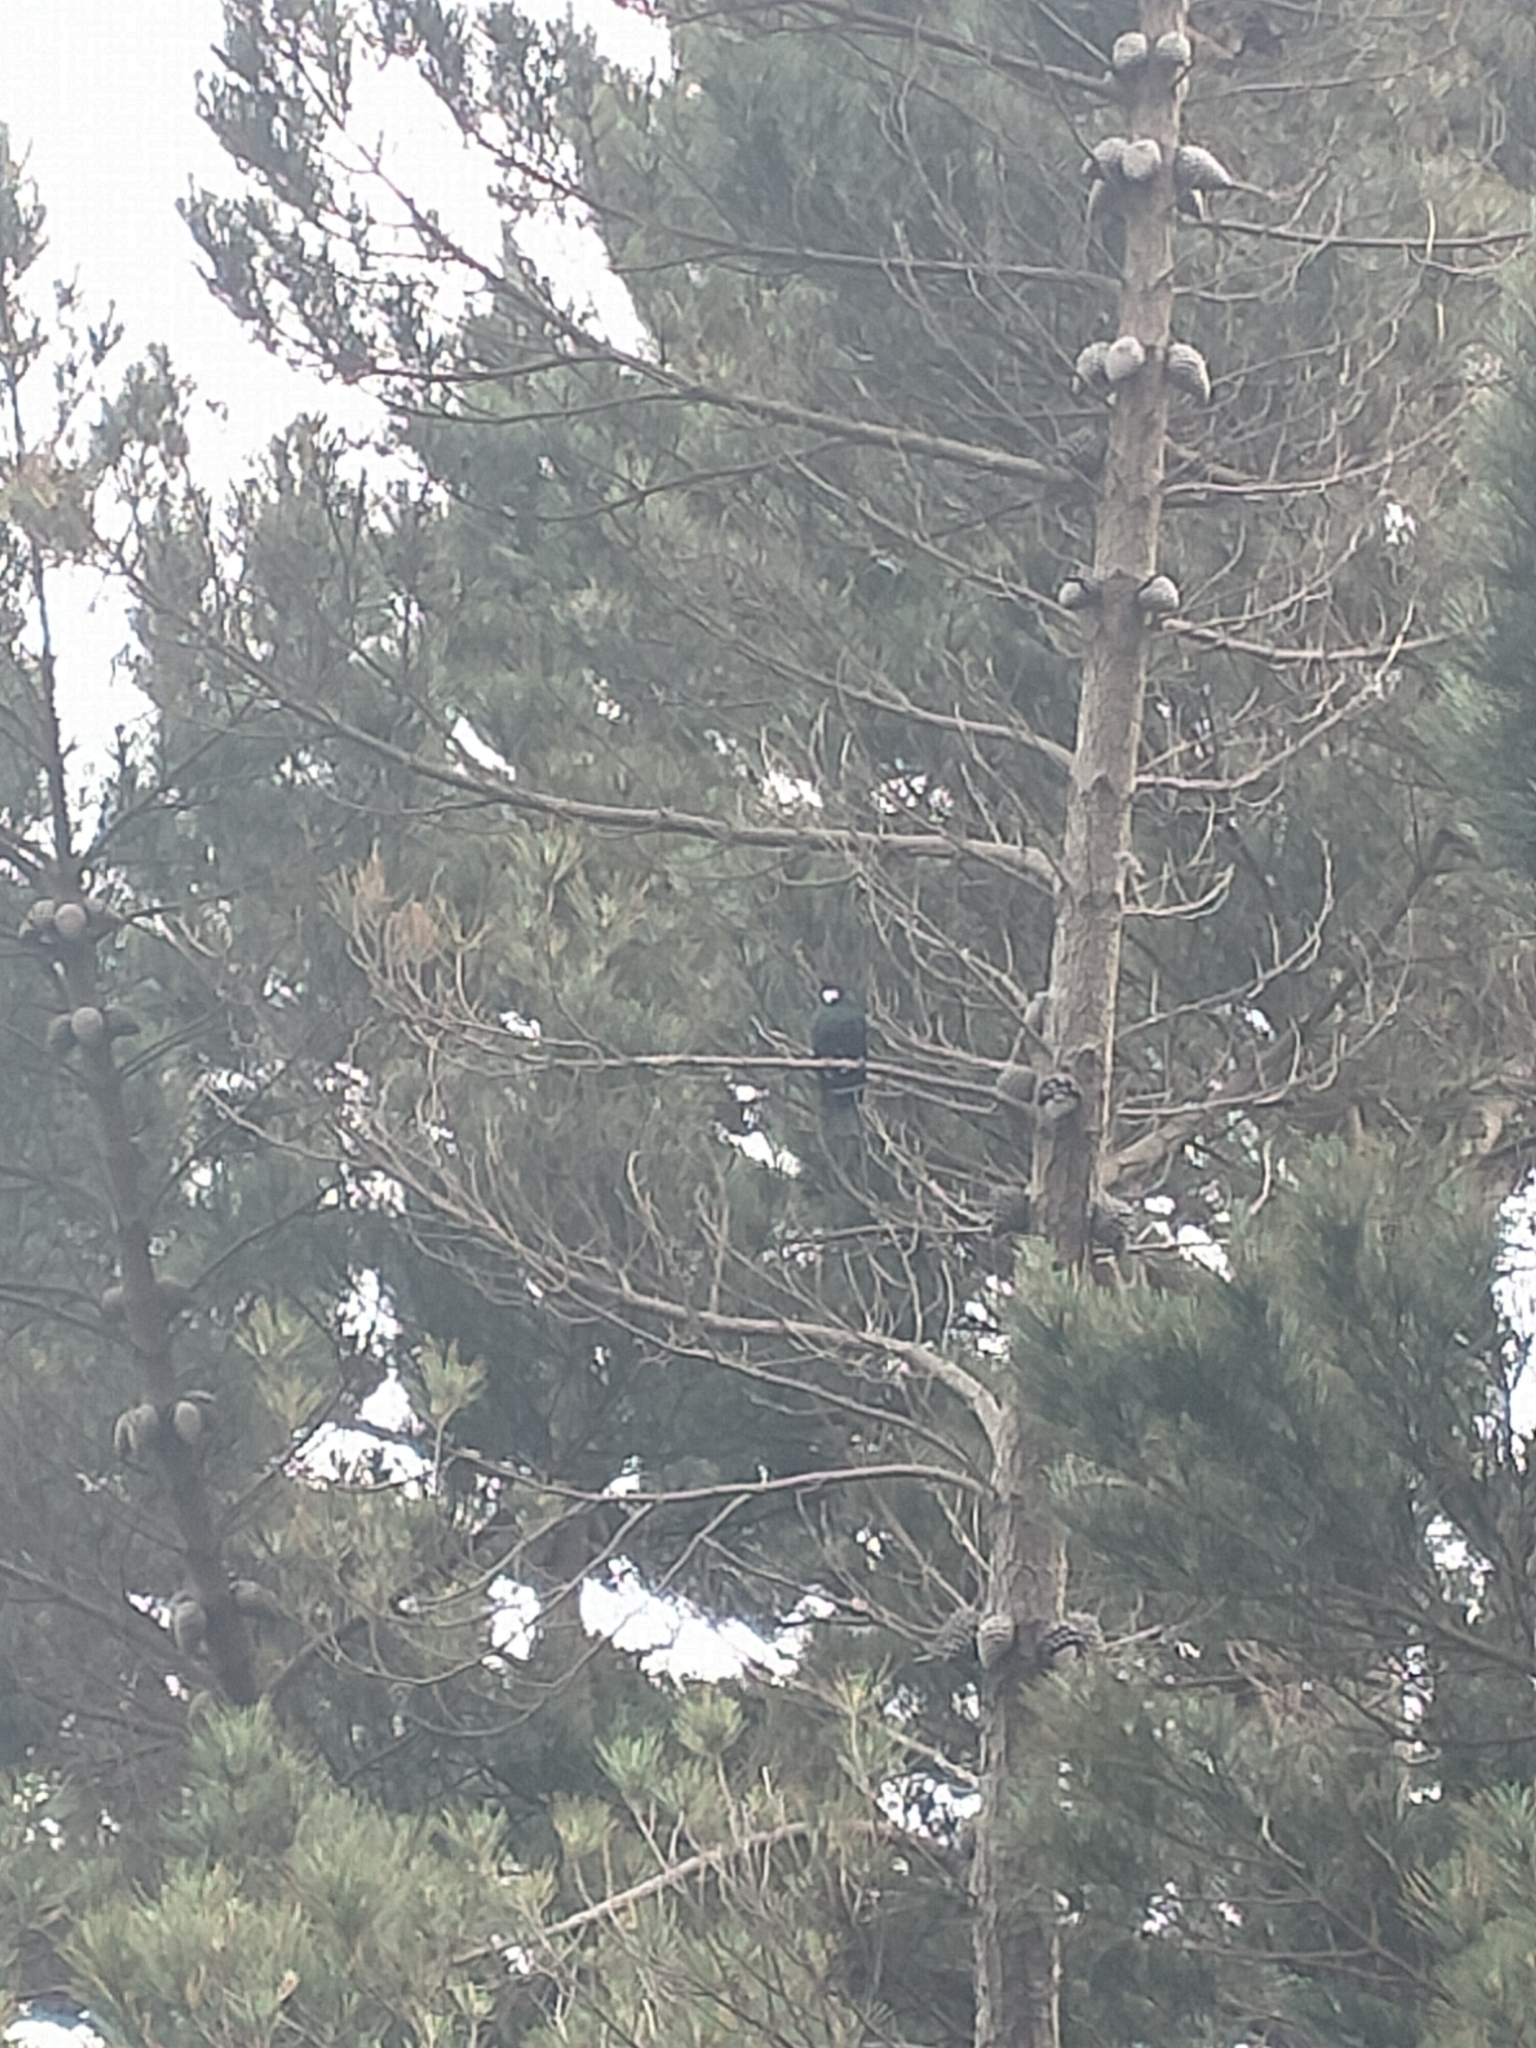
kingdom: Animalia
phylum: Chordata
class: Aves
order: Passeriformes
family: Meliphagidae
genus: Prosthemadera
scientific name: Prosthemadera novaeseelandiae
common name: Tui
